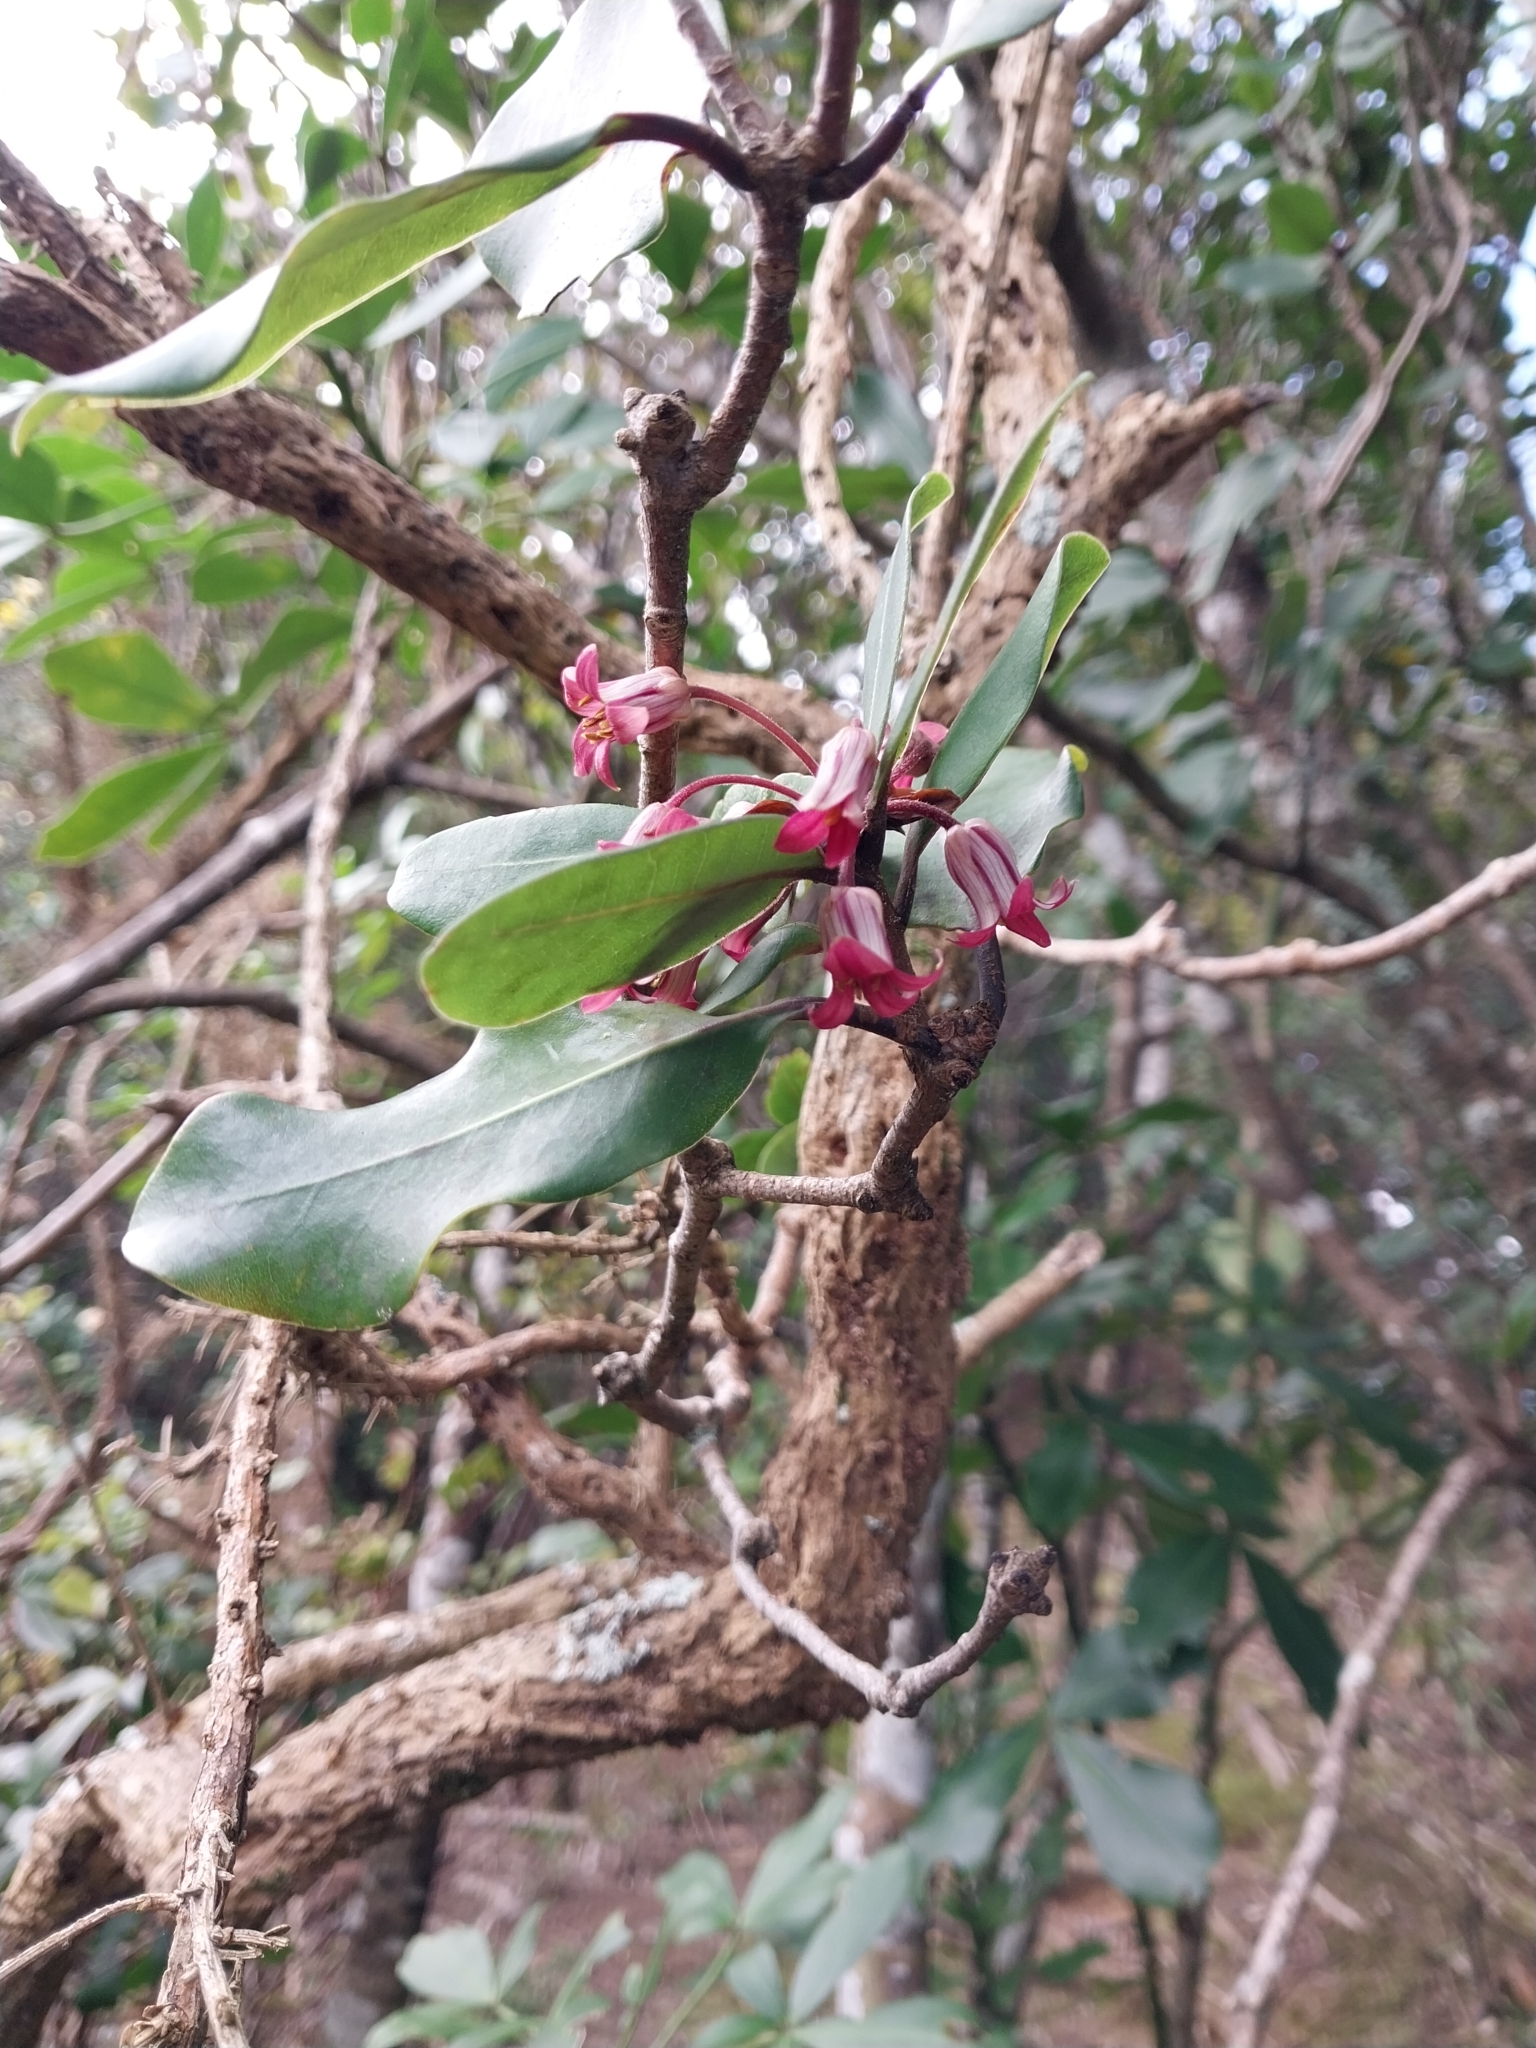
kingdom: Plantae
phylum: Tracheophyta
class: Magnoliopsida
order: Apiales
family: Pittosporaceae
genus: Pittosporum
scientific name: Pittosporum umbellatum
